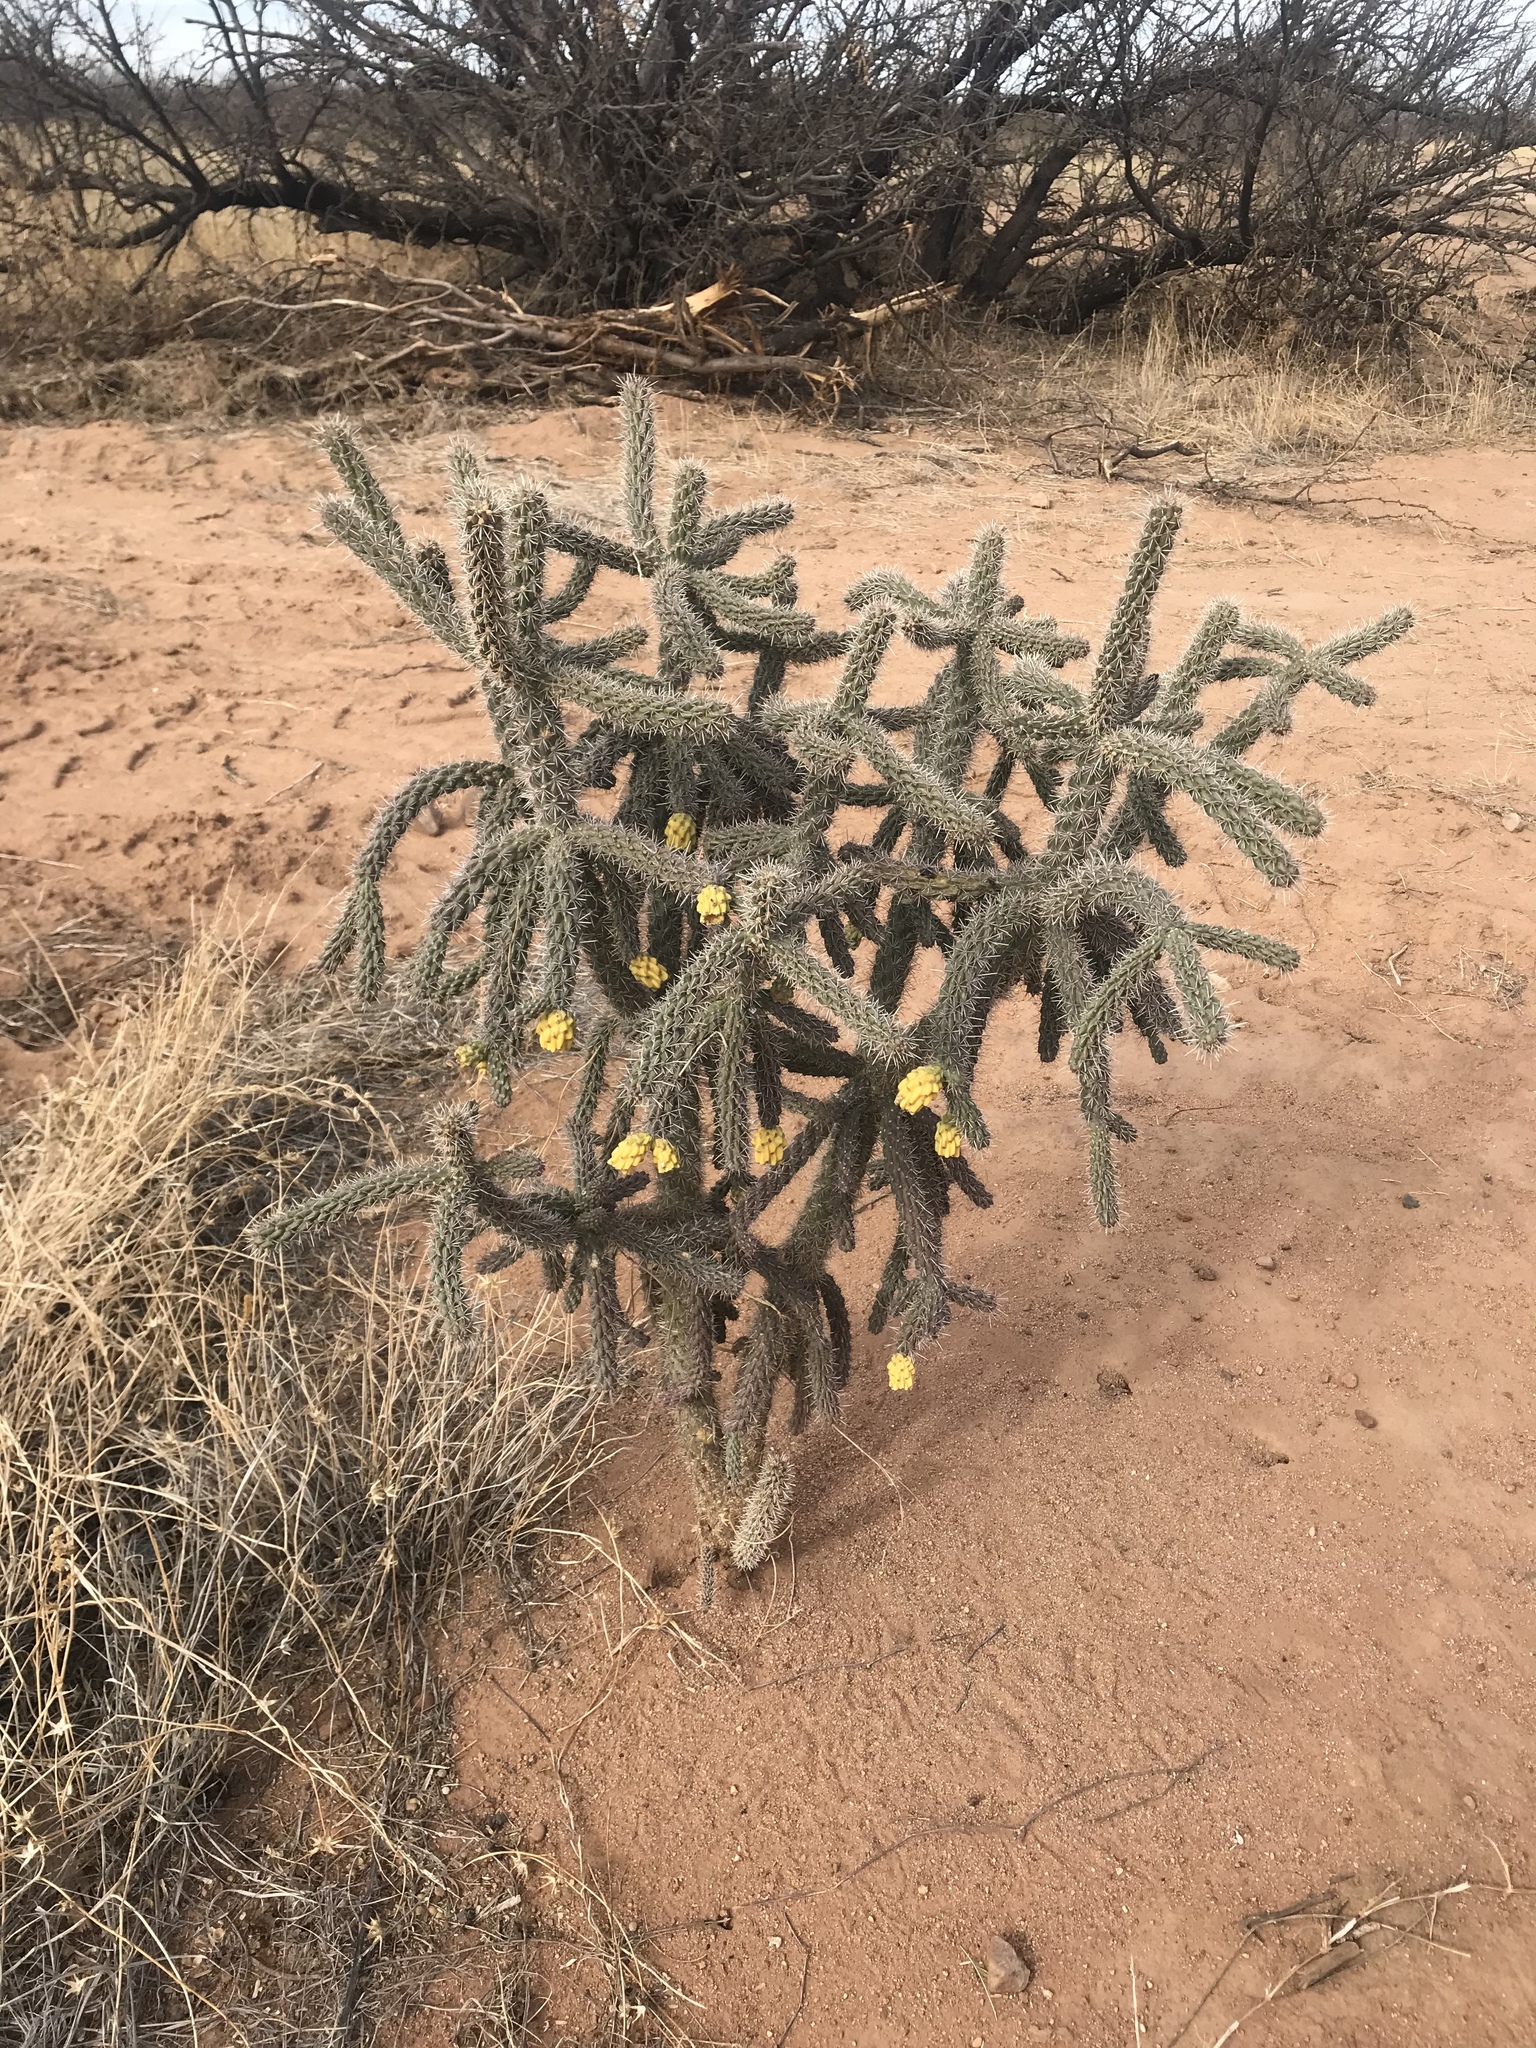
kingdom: Plantae
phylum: Tracheophyta
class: Magnoliopsida
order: Caryophyllales
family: Cactaceae
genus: Cylindropuntia
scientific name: Cylindropuntia imbricata
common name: Candelabrum cactus
